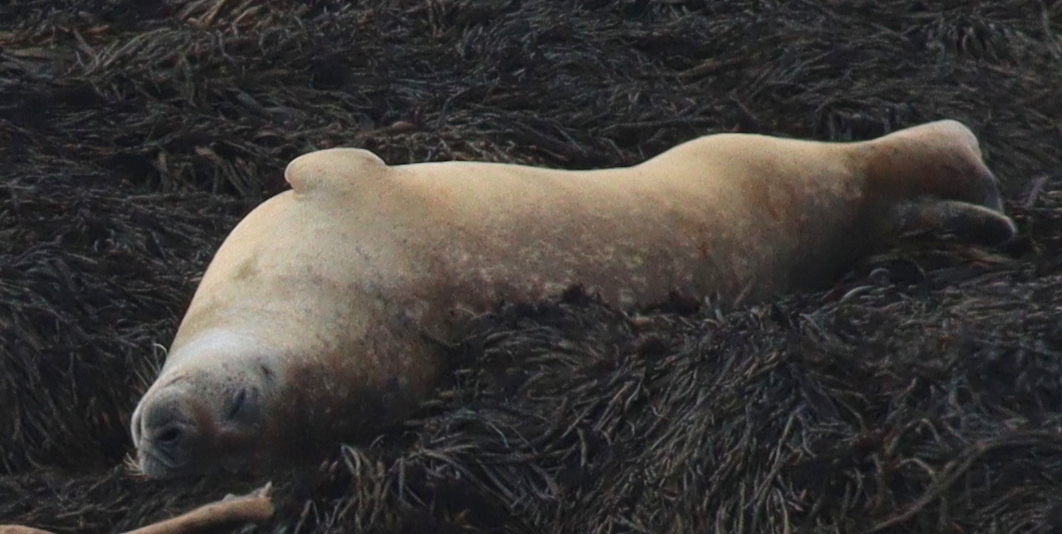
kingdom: Animalia
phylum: Chordata
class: Mammalia
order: Carnivora
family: Phocidae
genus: Phoca
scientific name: Phoca vitulina
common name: Harbor seal
